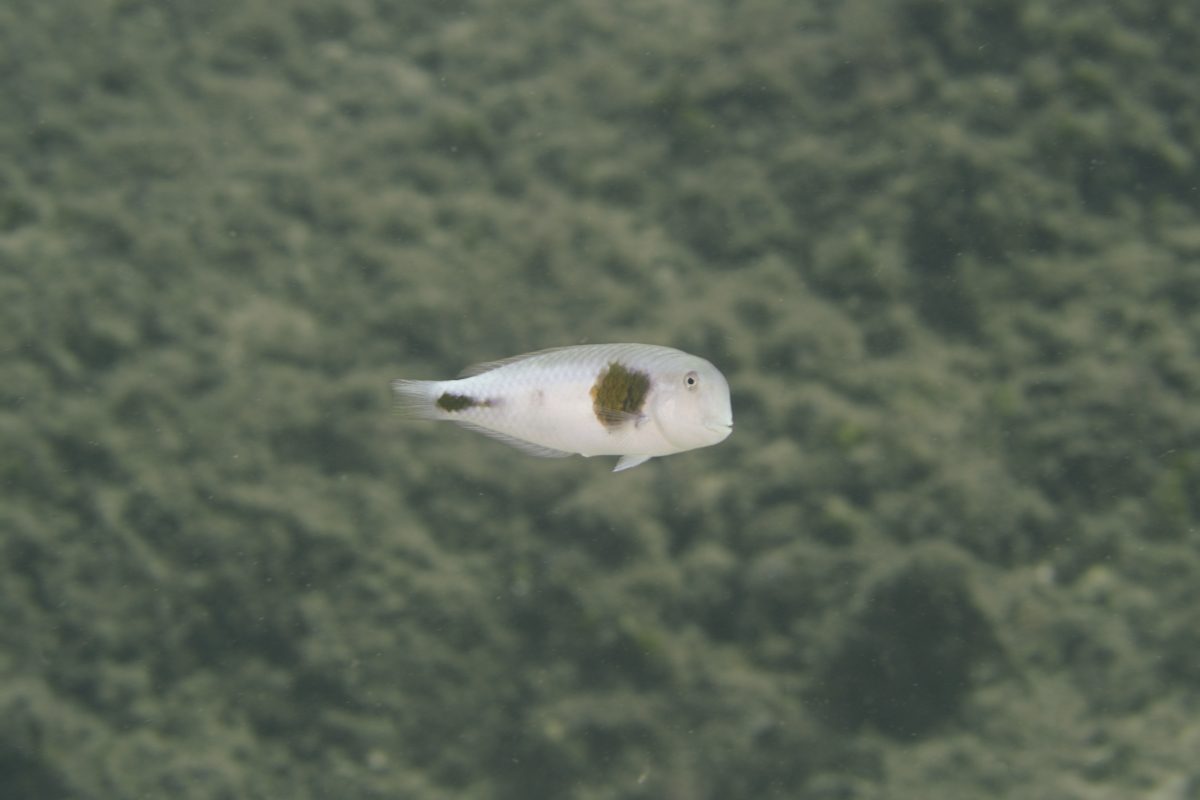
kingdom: Animalia
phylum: Chordata
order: Perciformes
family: Labridae
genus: Iniistius
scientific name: Iniistius celebicus
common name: Bronzespot razorfish
